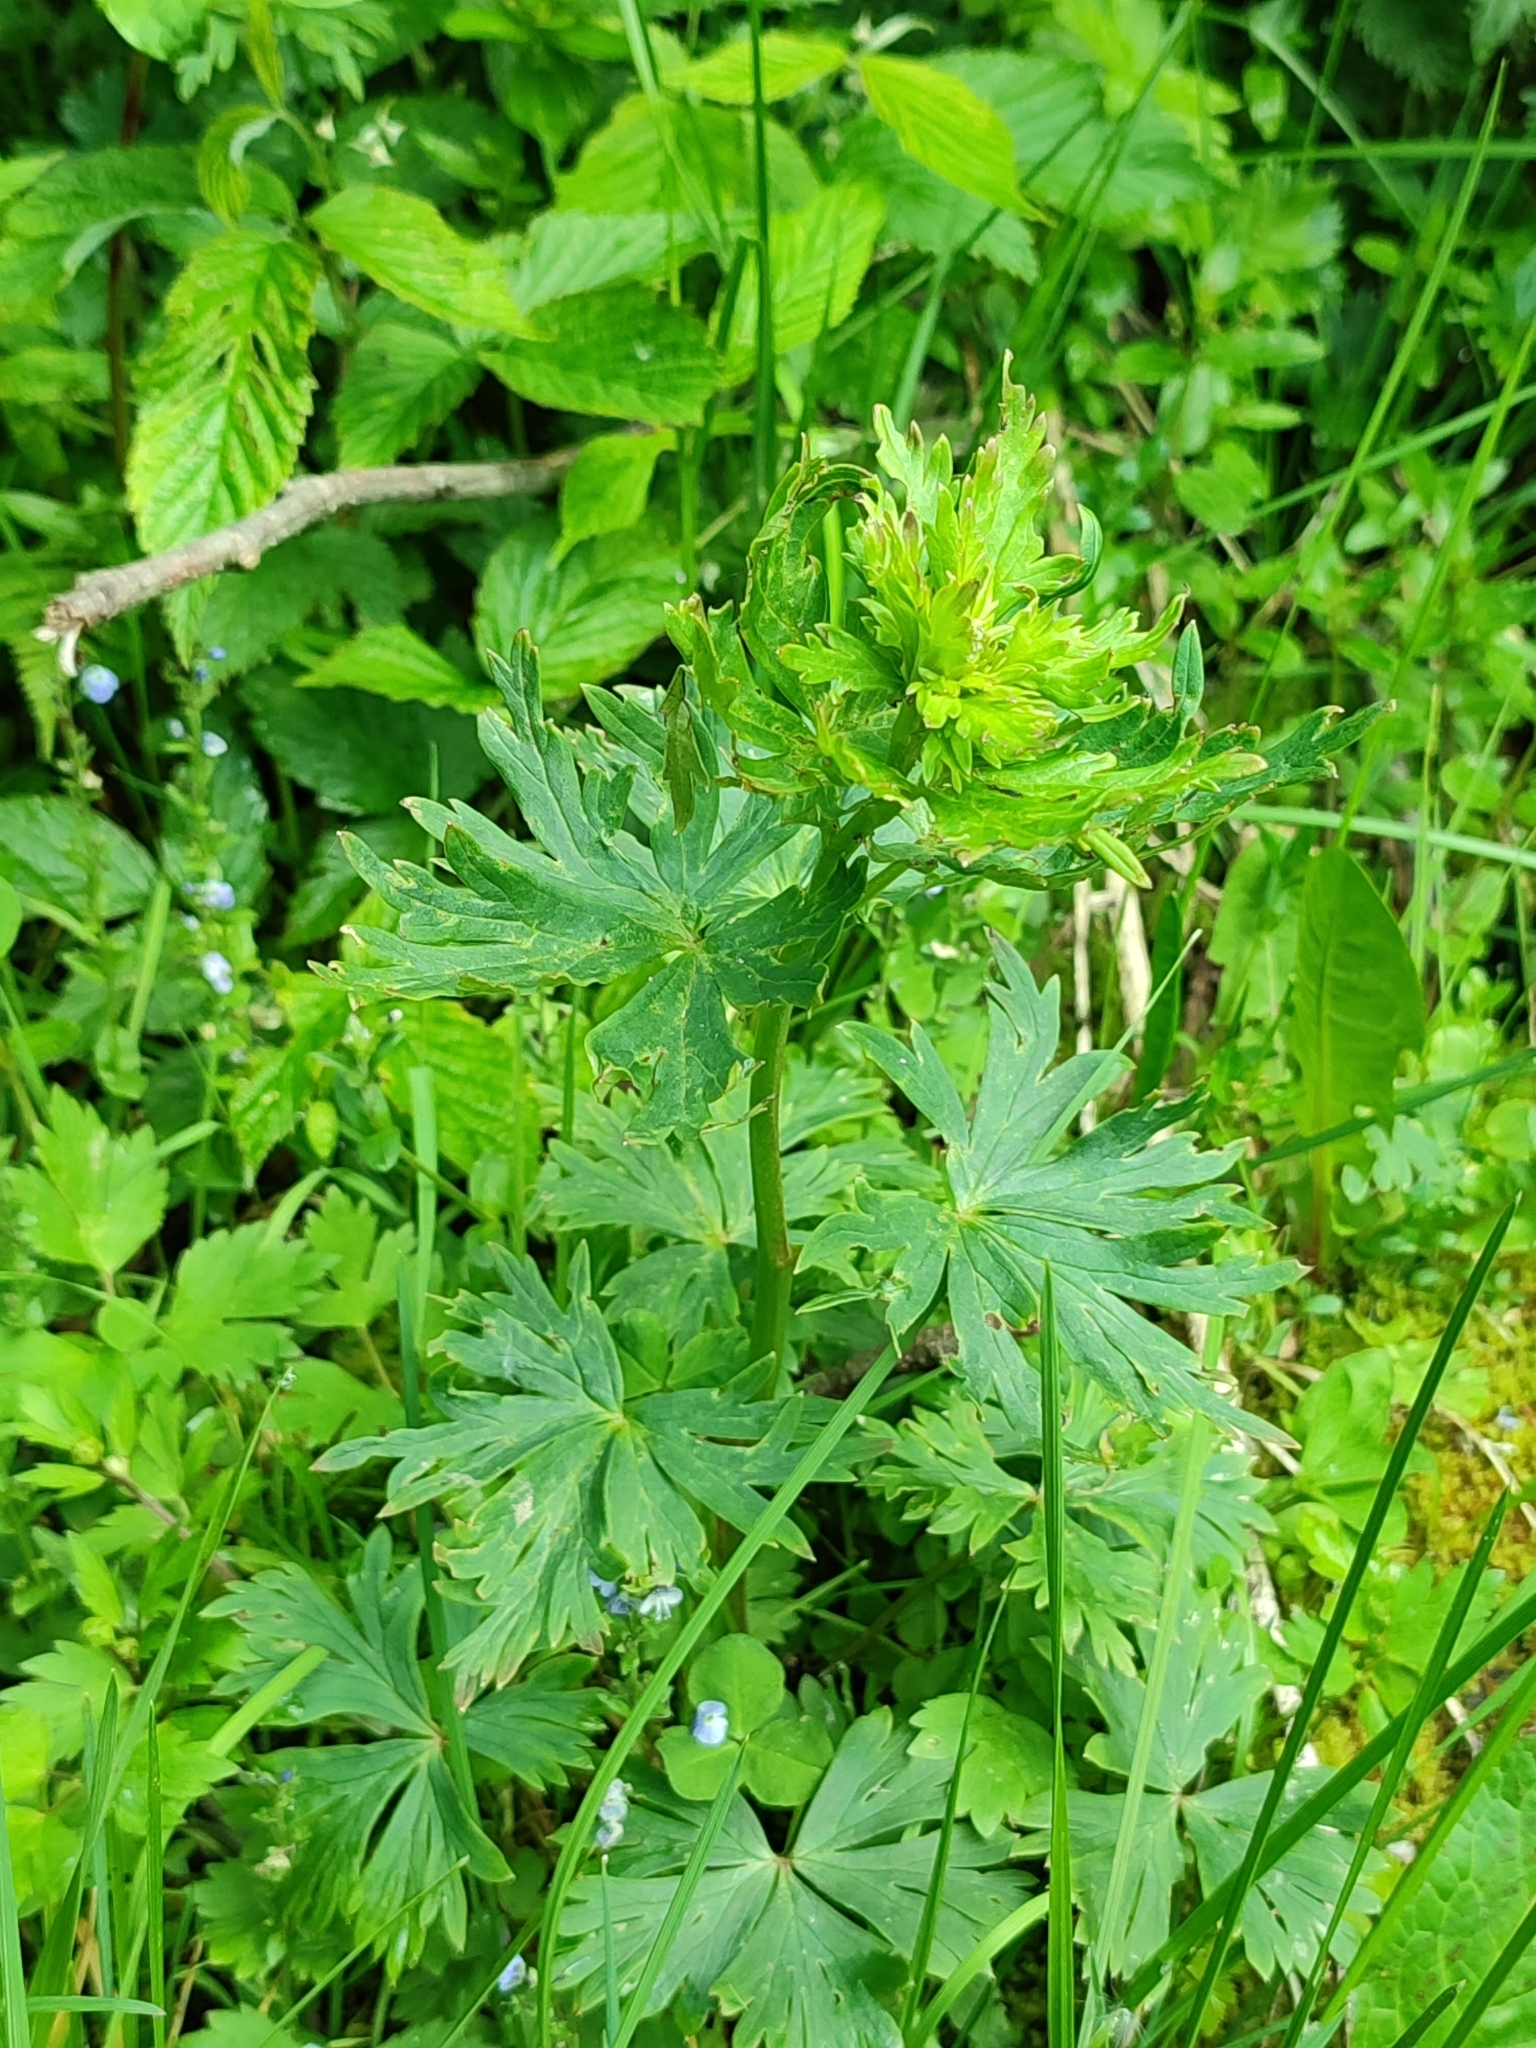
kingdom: Plantae
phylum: Tracheophyta
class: Magnoliopsida
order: Ranunculales
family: Ranunculaceae
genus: Trollius
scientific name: Trollius europaeus
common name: European globeflower
